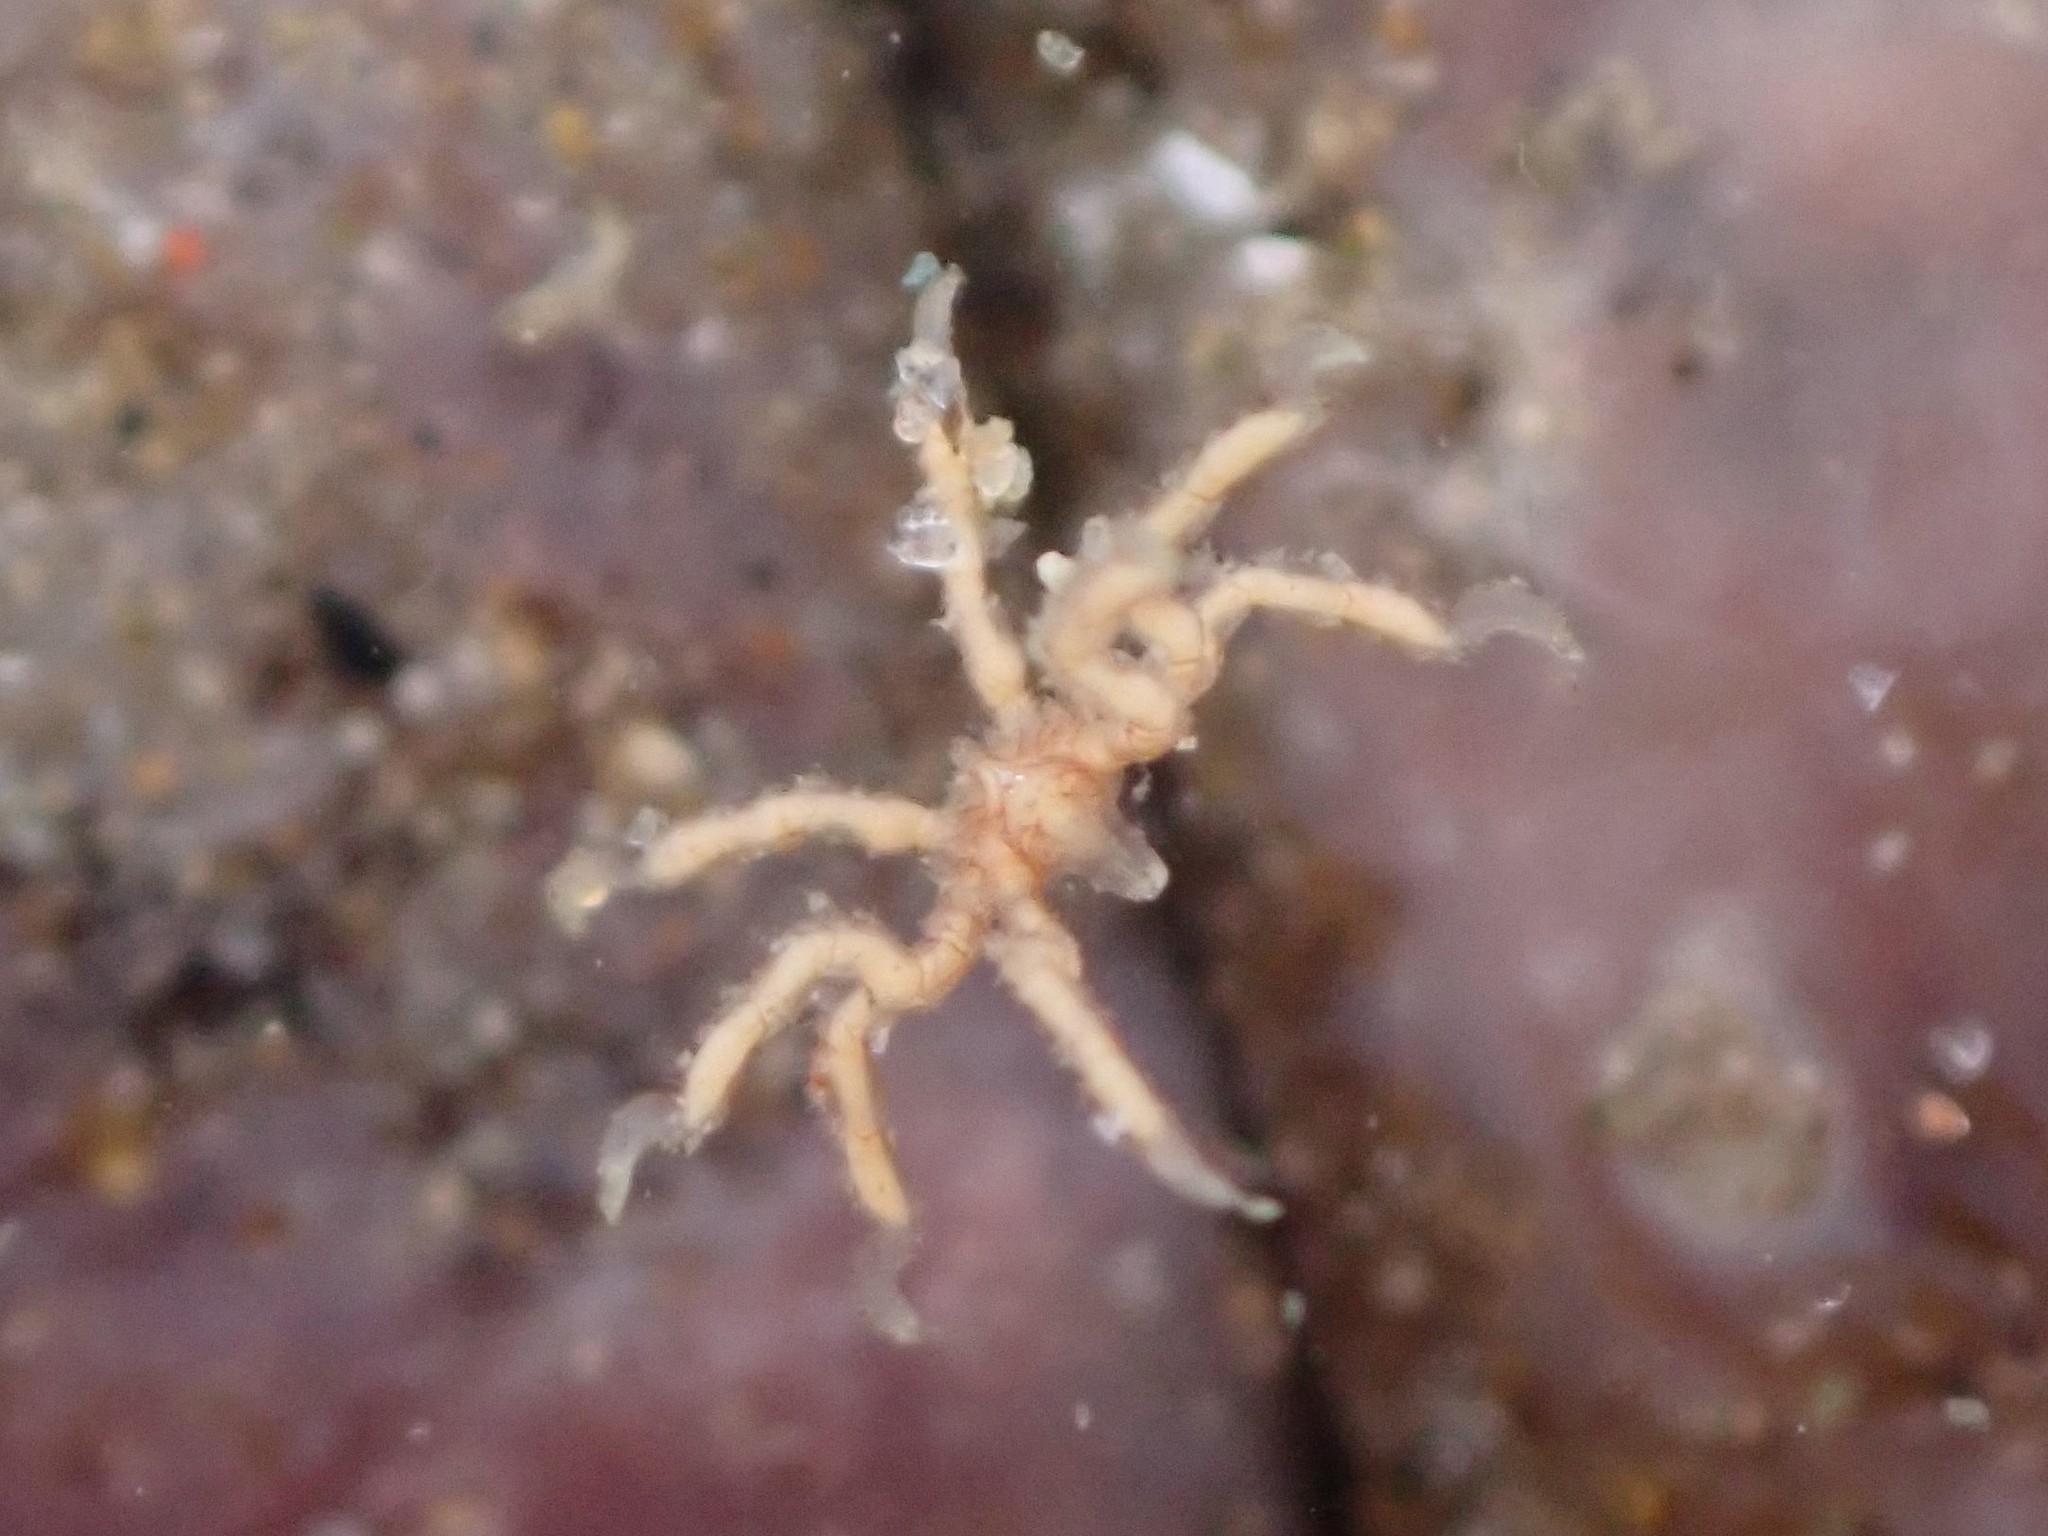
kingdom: Animalia
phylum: Arthropoda
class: Pycnogonida
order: Pantopoda
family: Ammotheidae
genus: Tanystylum
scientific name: Tanystylum californicum
